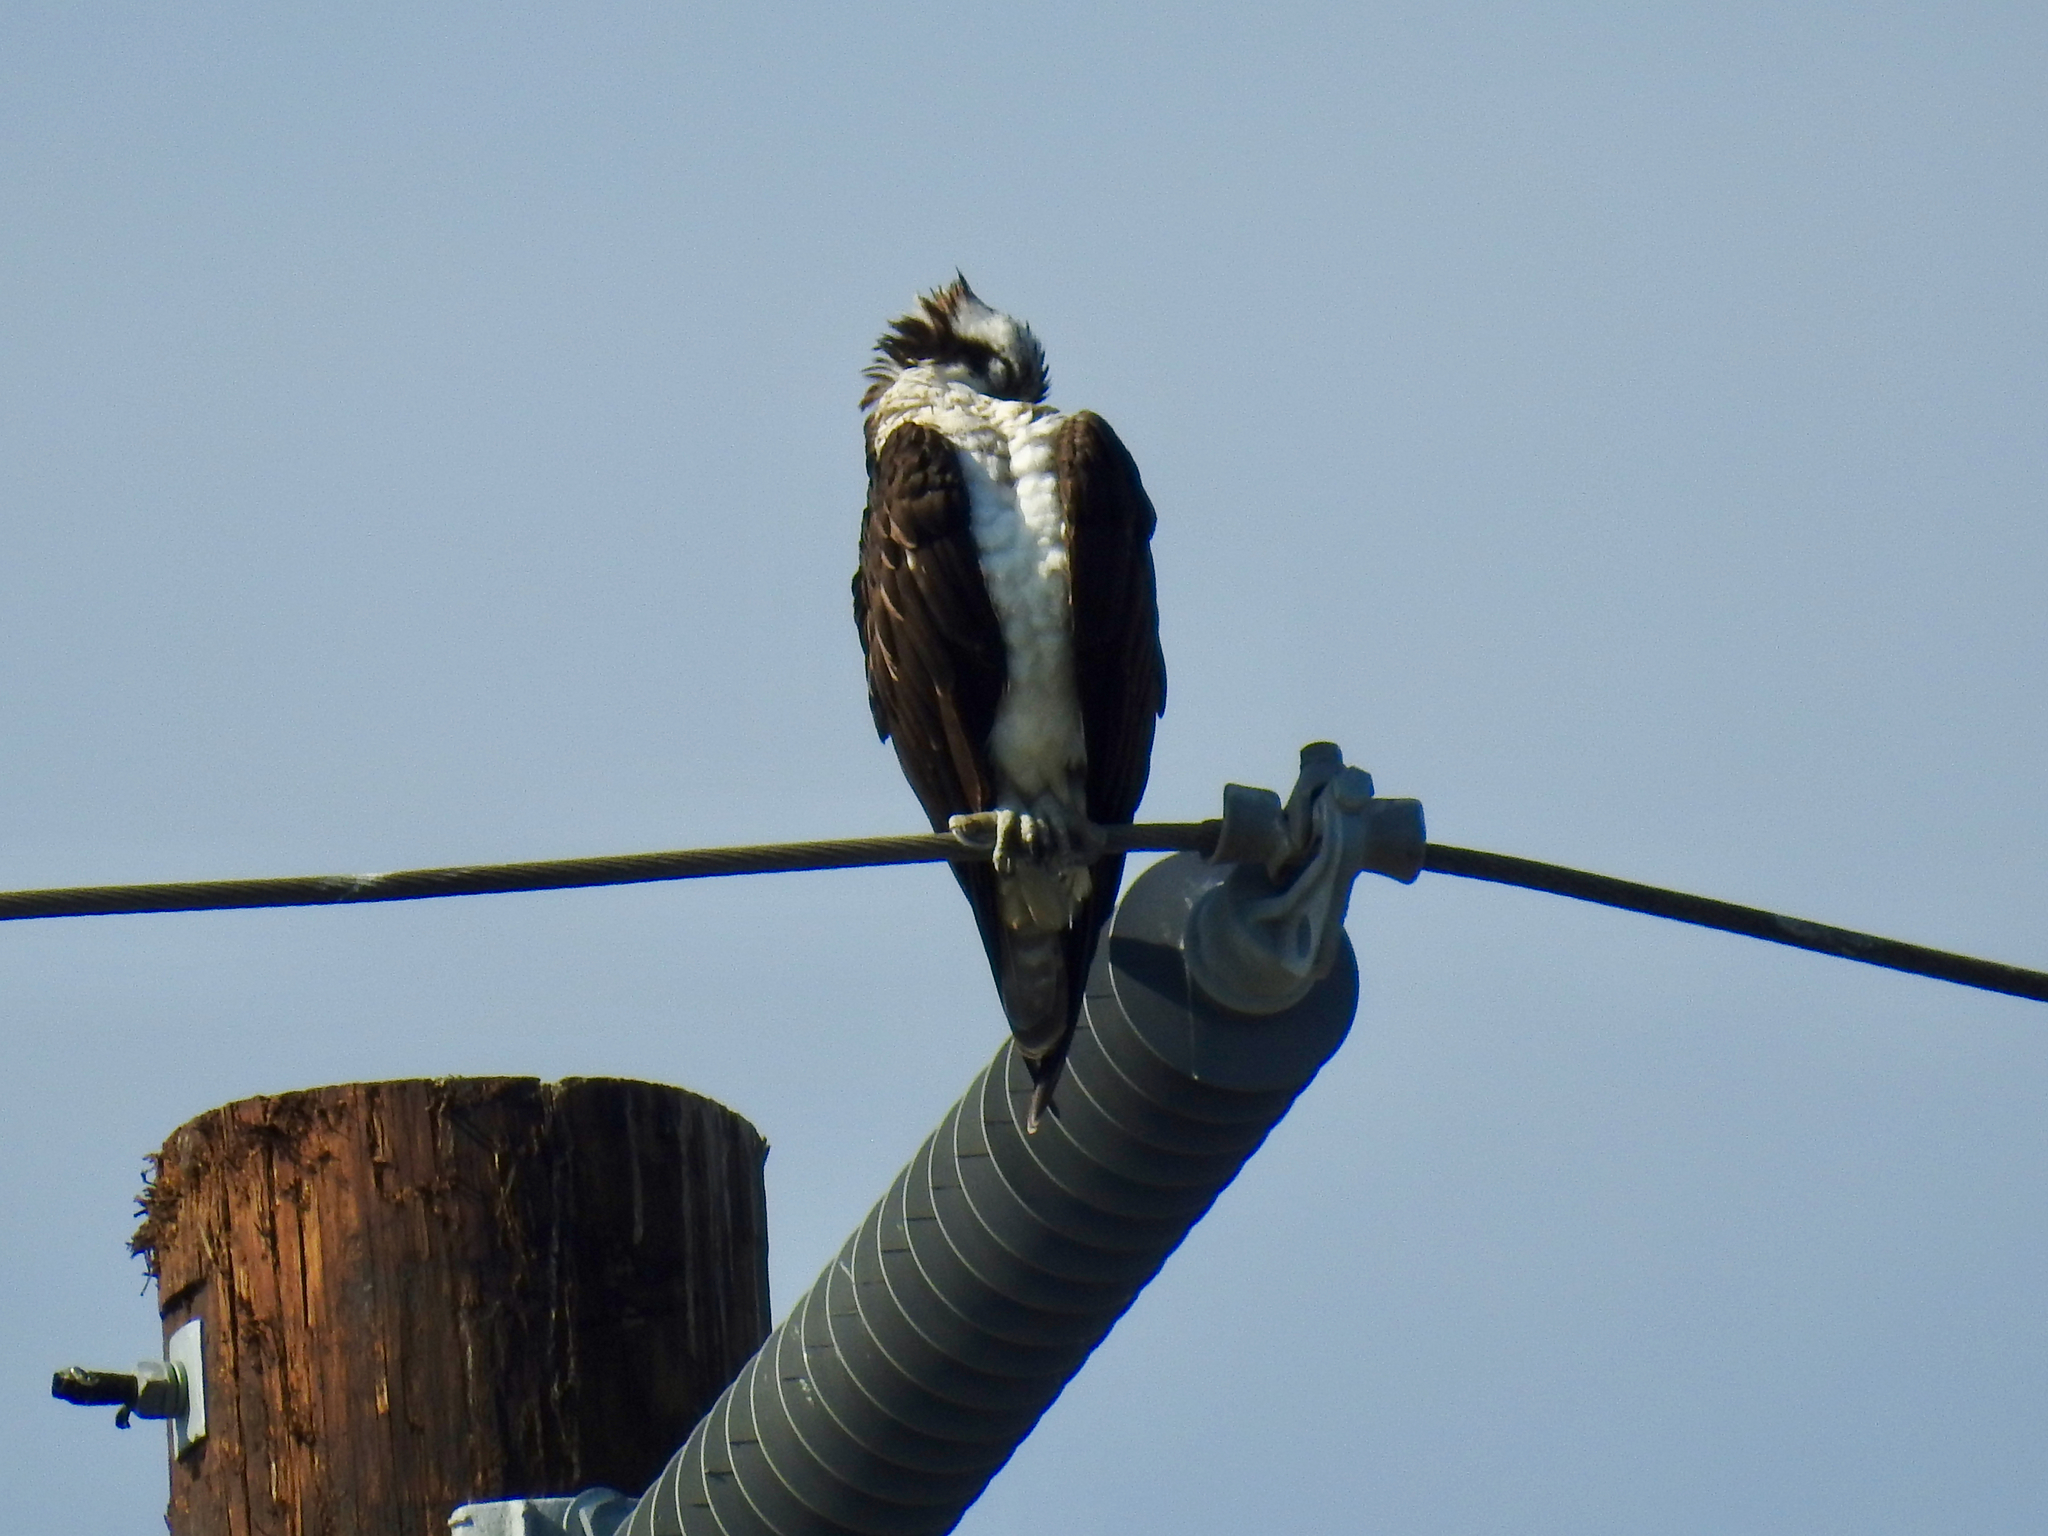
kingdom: Animalia
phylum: Chordata
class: Aves
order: Accipitriformes
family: Pandionidae
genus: Pandion
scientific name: Pandion haliaetus
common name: Osprey
